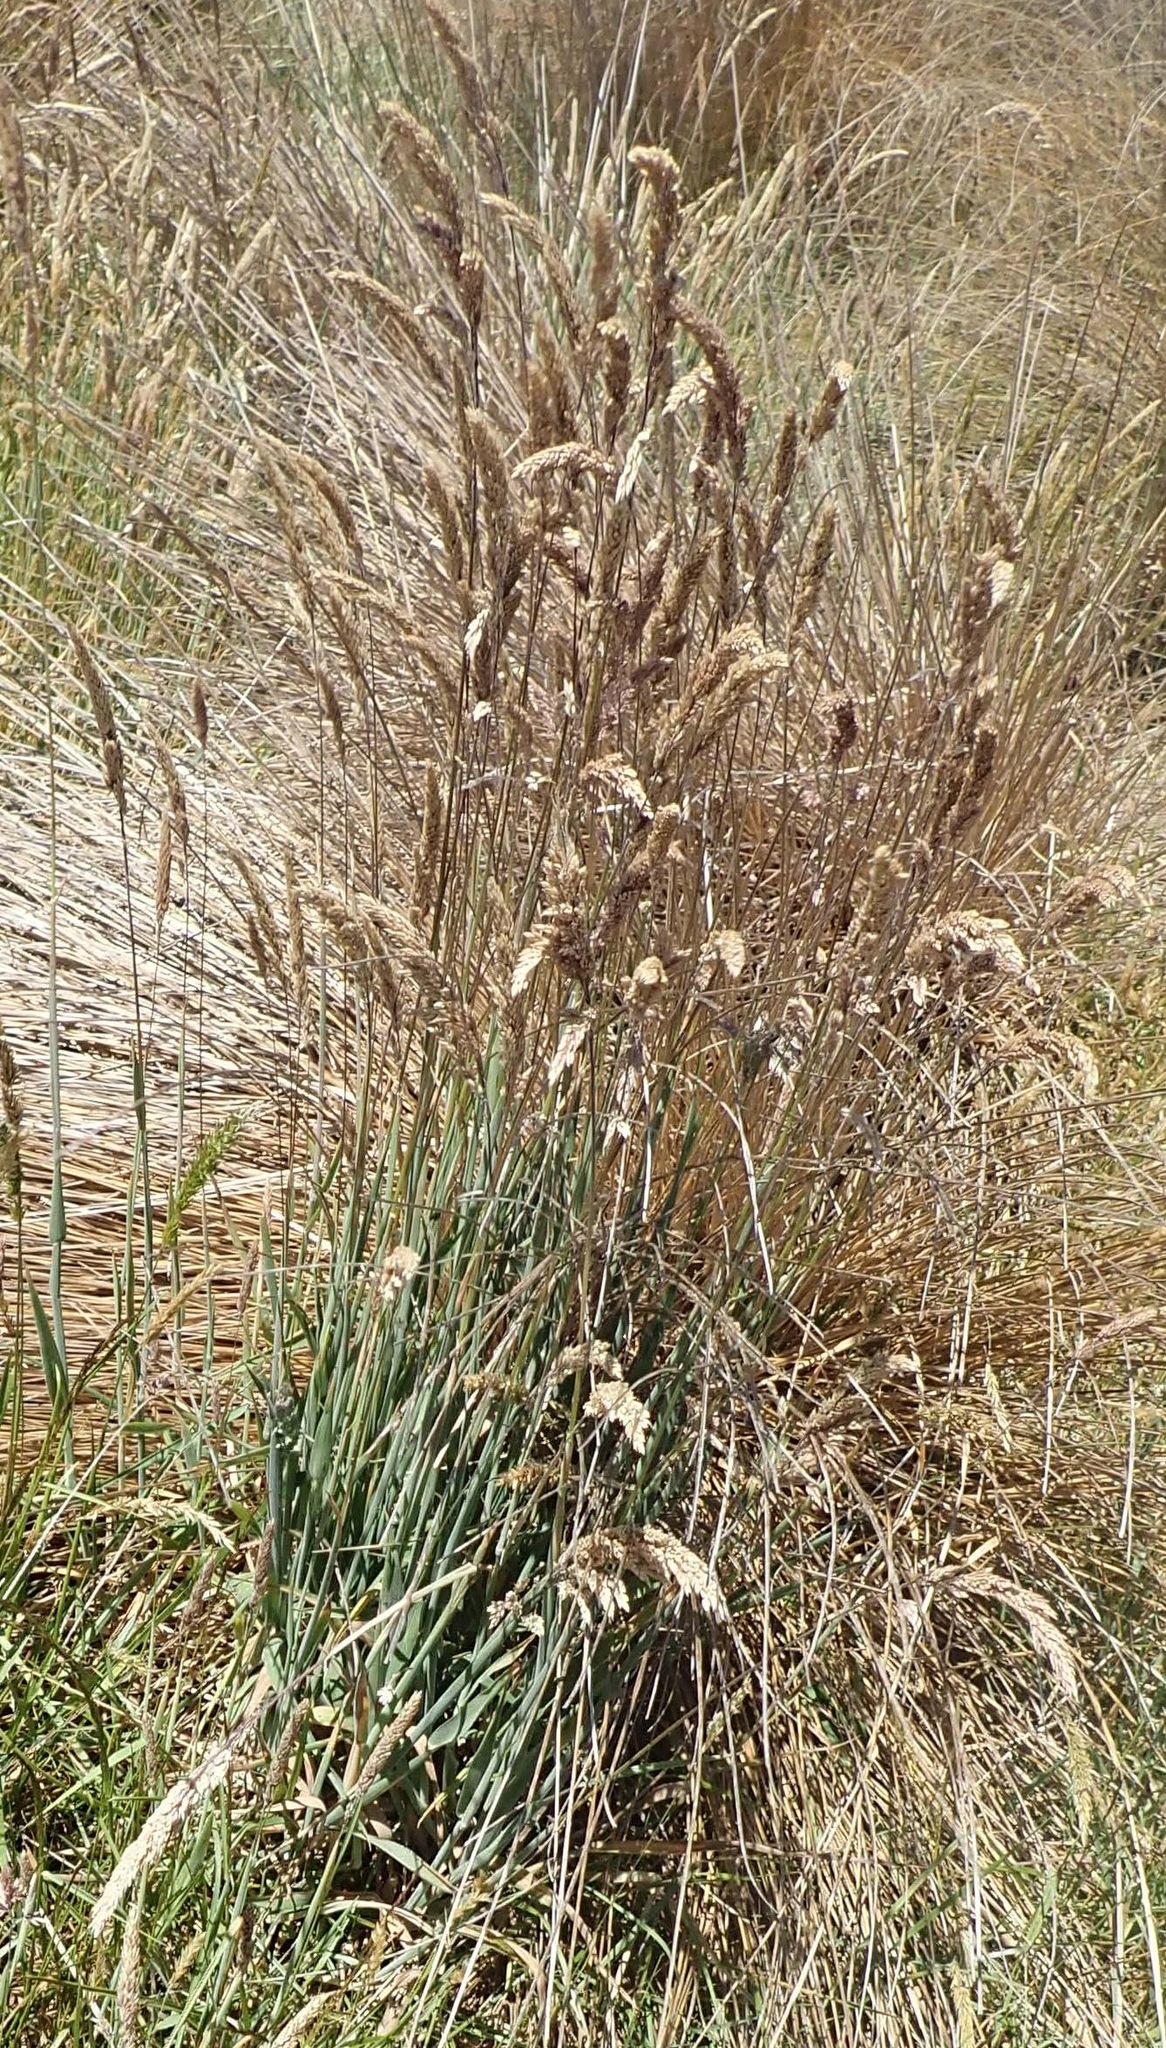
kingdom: Plantae
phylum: Tracheophyta
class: Liliopsida
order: Poales
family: Poaceae
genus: Holcus
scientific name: Holcus lanatus
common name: Yorkshire-fog
